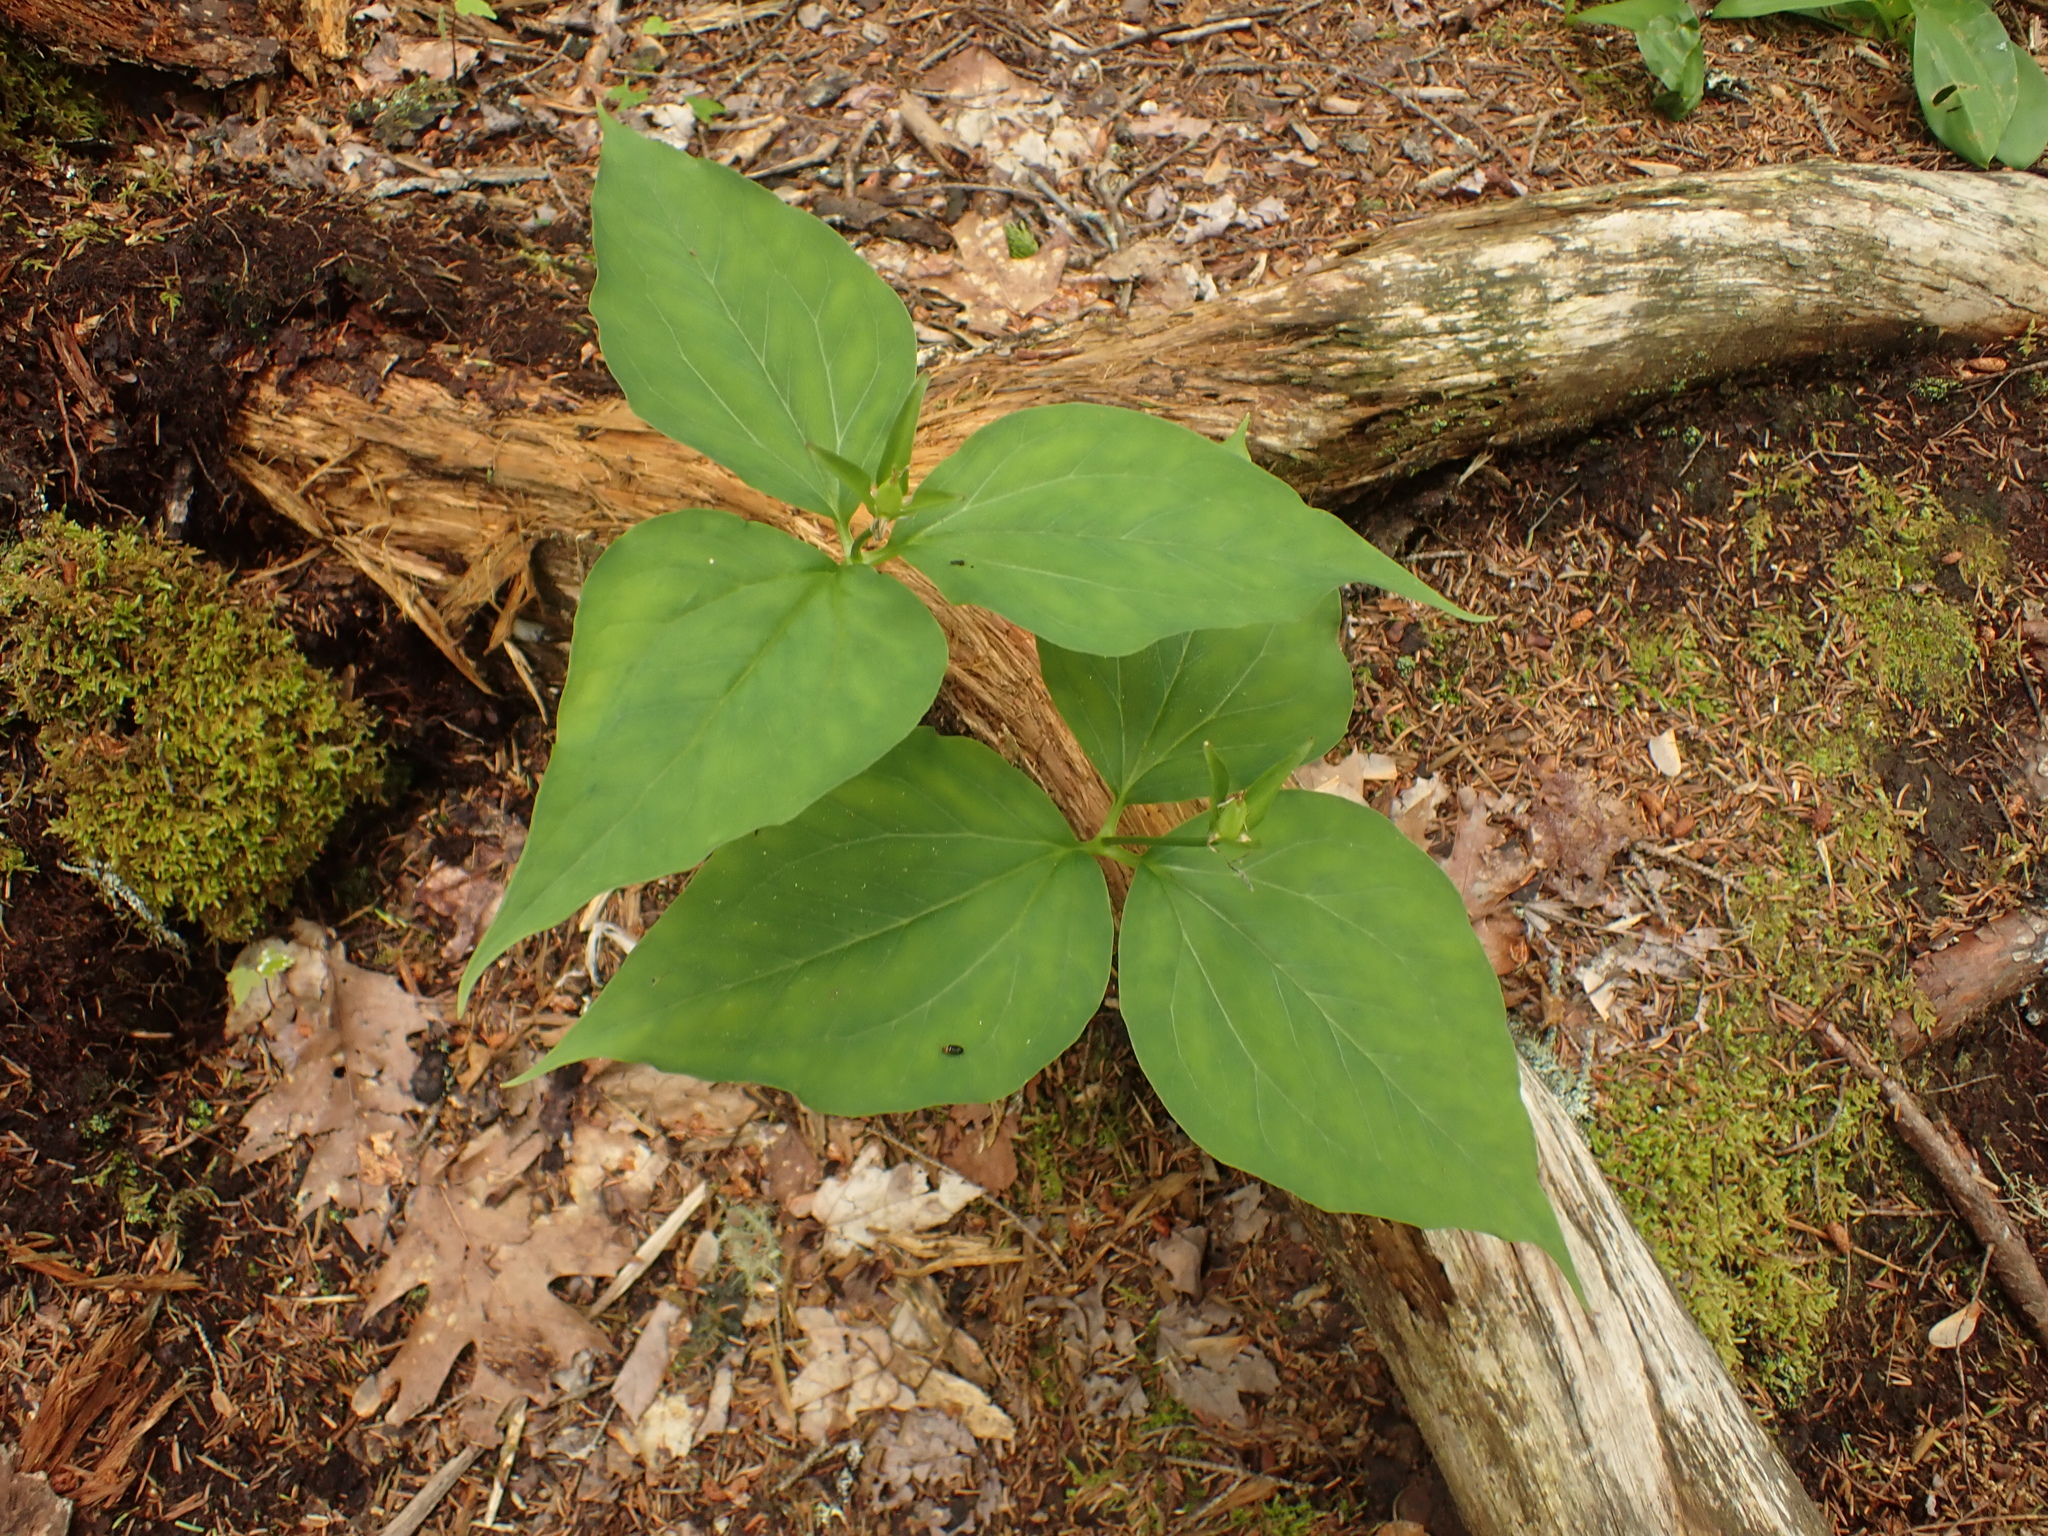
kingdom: Plantae
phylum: Tracheophyta
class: Liliopsida
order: Liliales
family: Melanthiaceae
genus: Trillium
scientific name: Trillium undulatum
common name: Paint trillium
